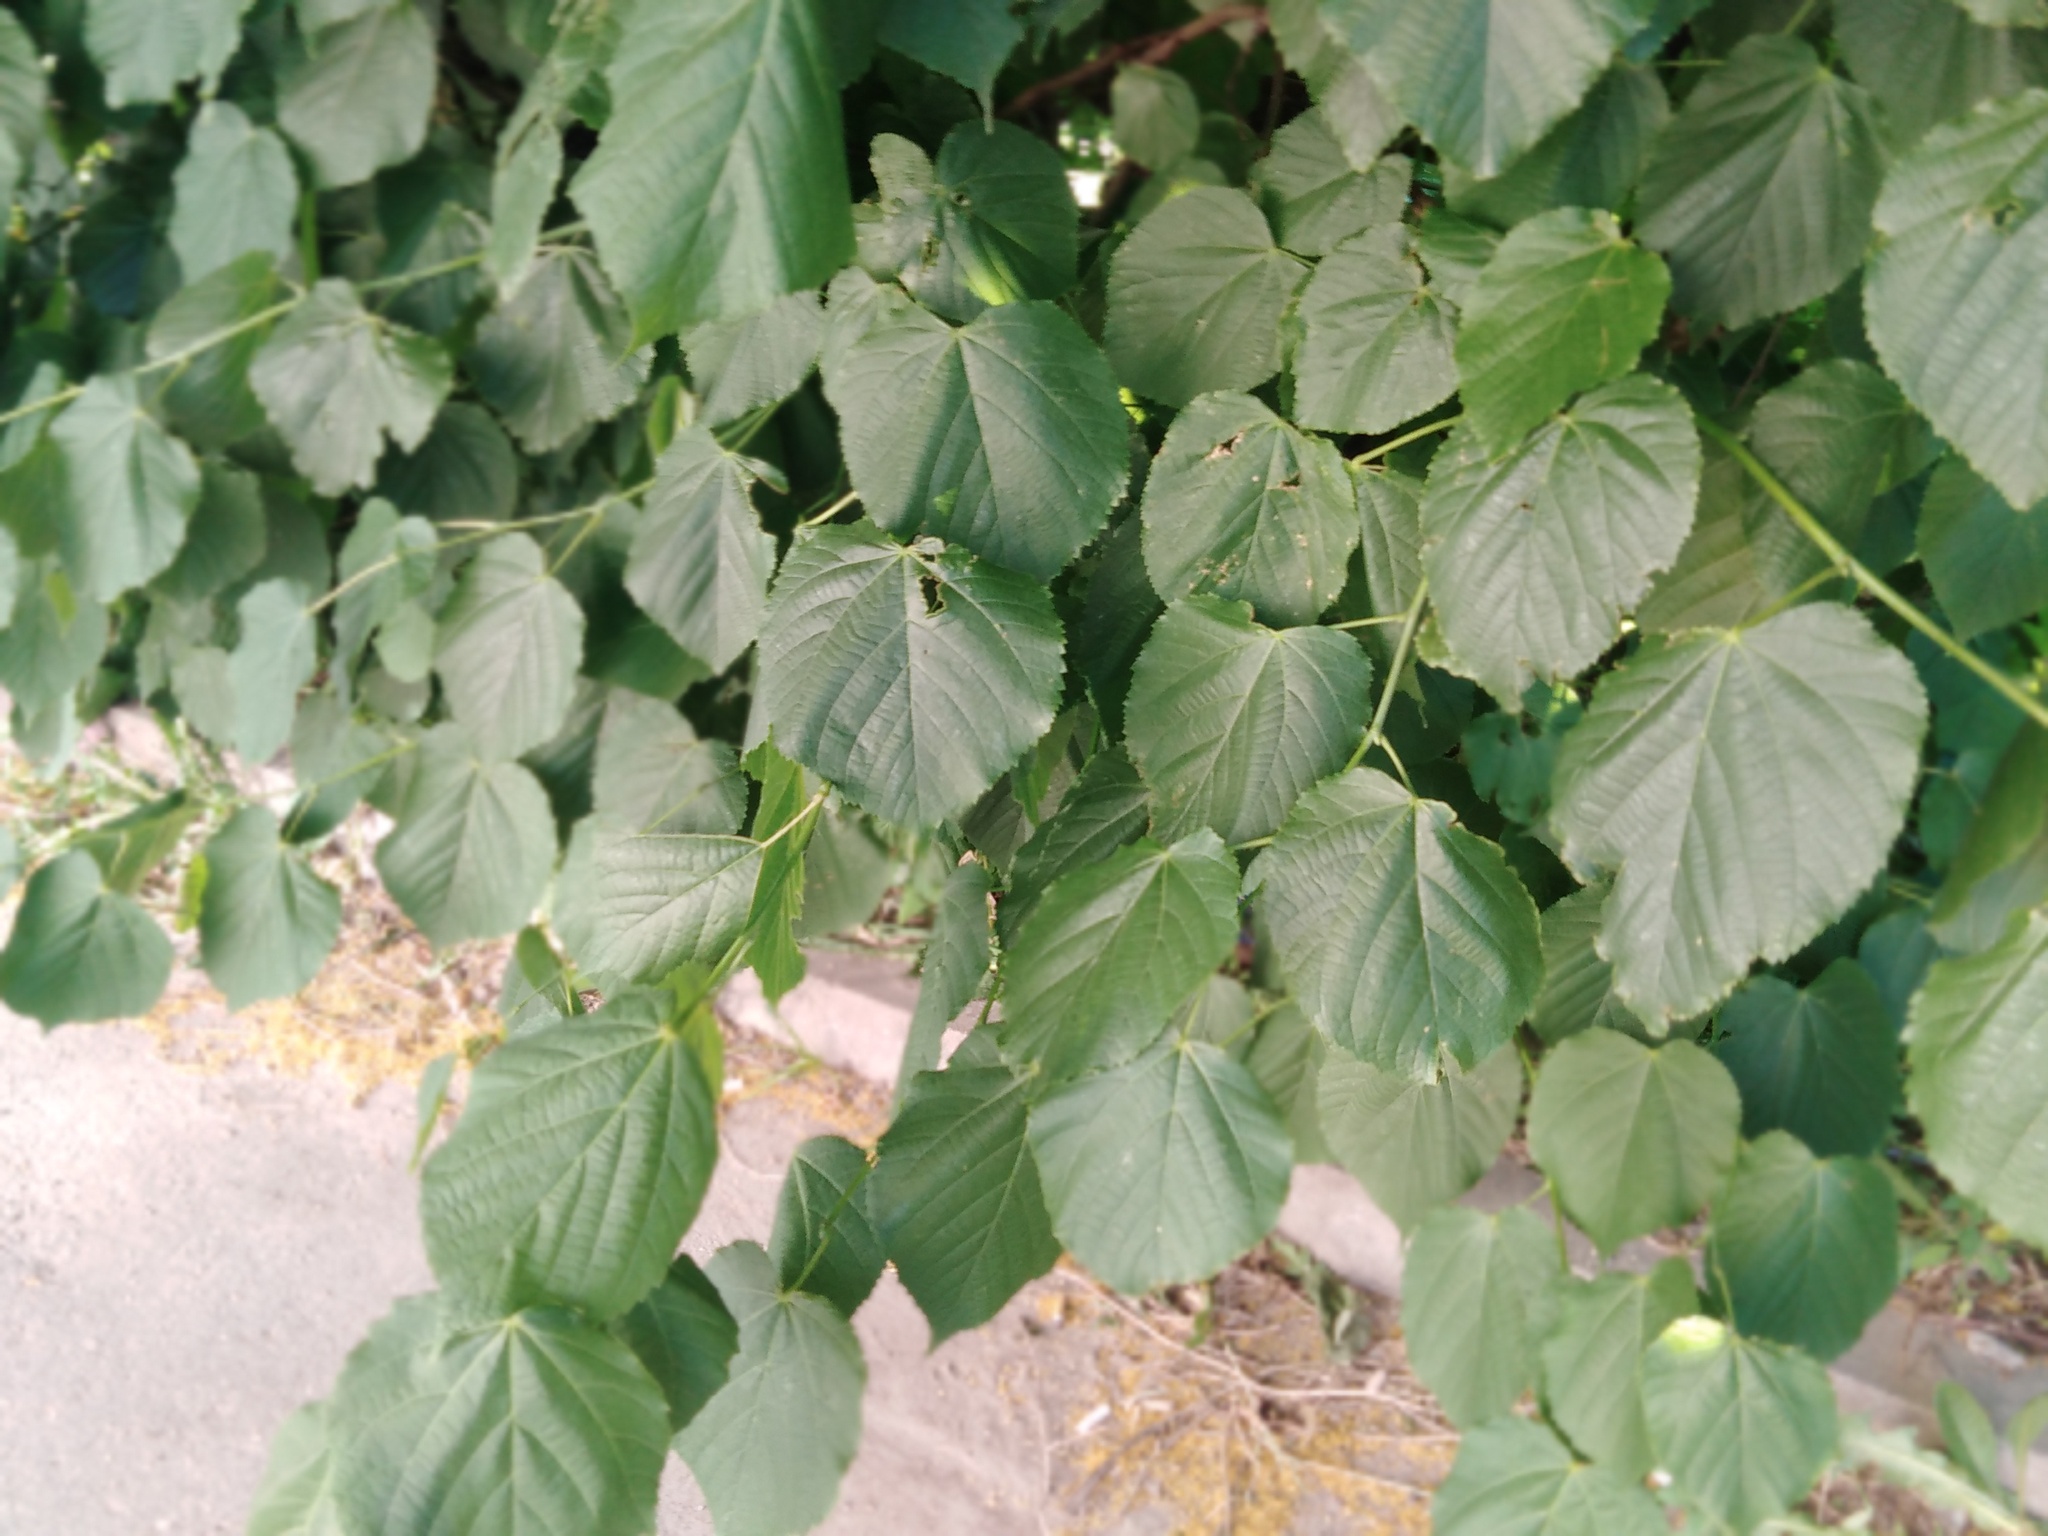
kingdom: Plantae
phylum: Tracheophyta
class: Magnoliopsida
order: Malvales
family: Malvaceae
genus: Tilia
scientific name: Tilia platyphyllos
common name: Large-leaved lime
